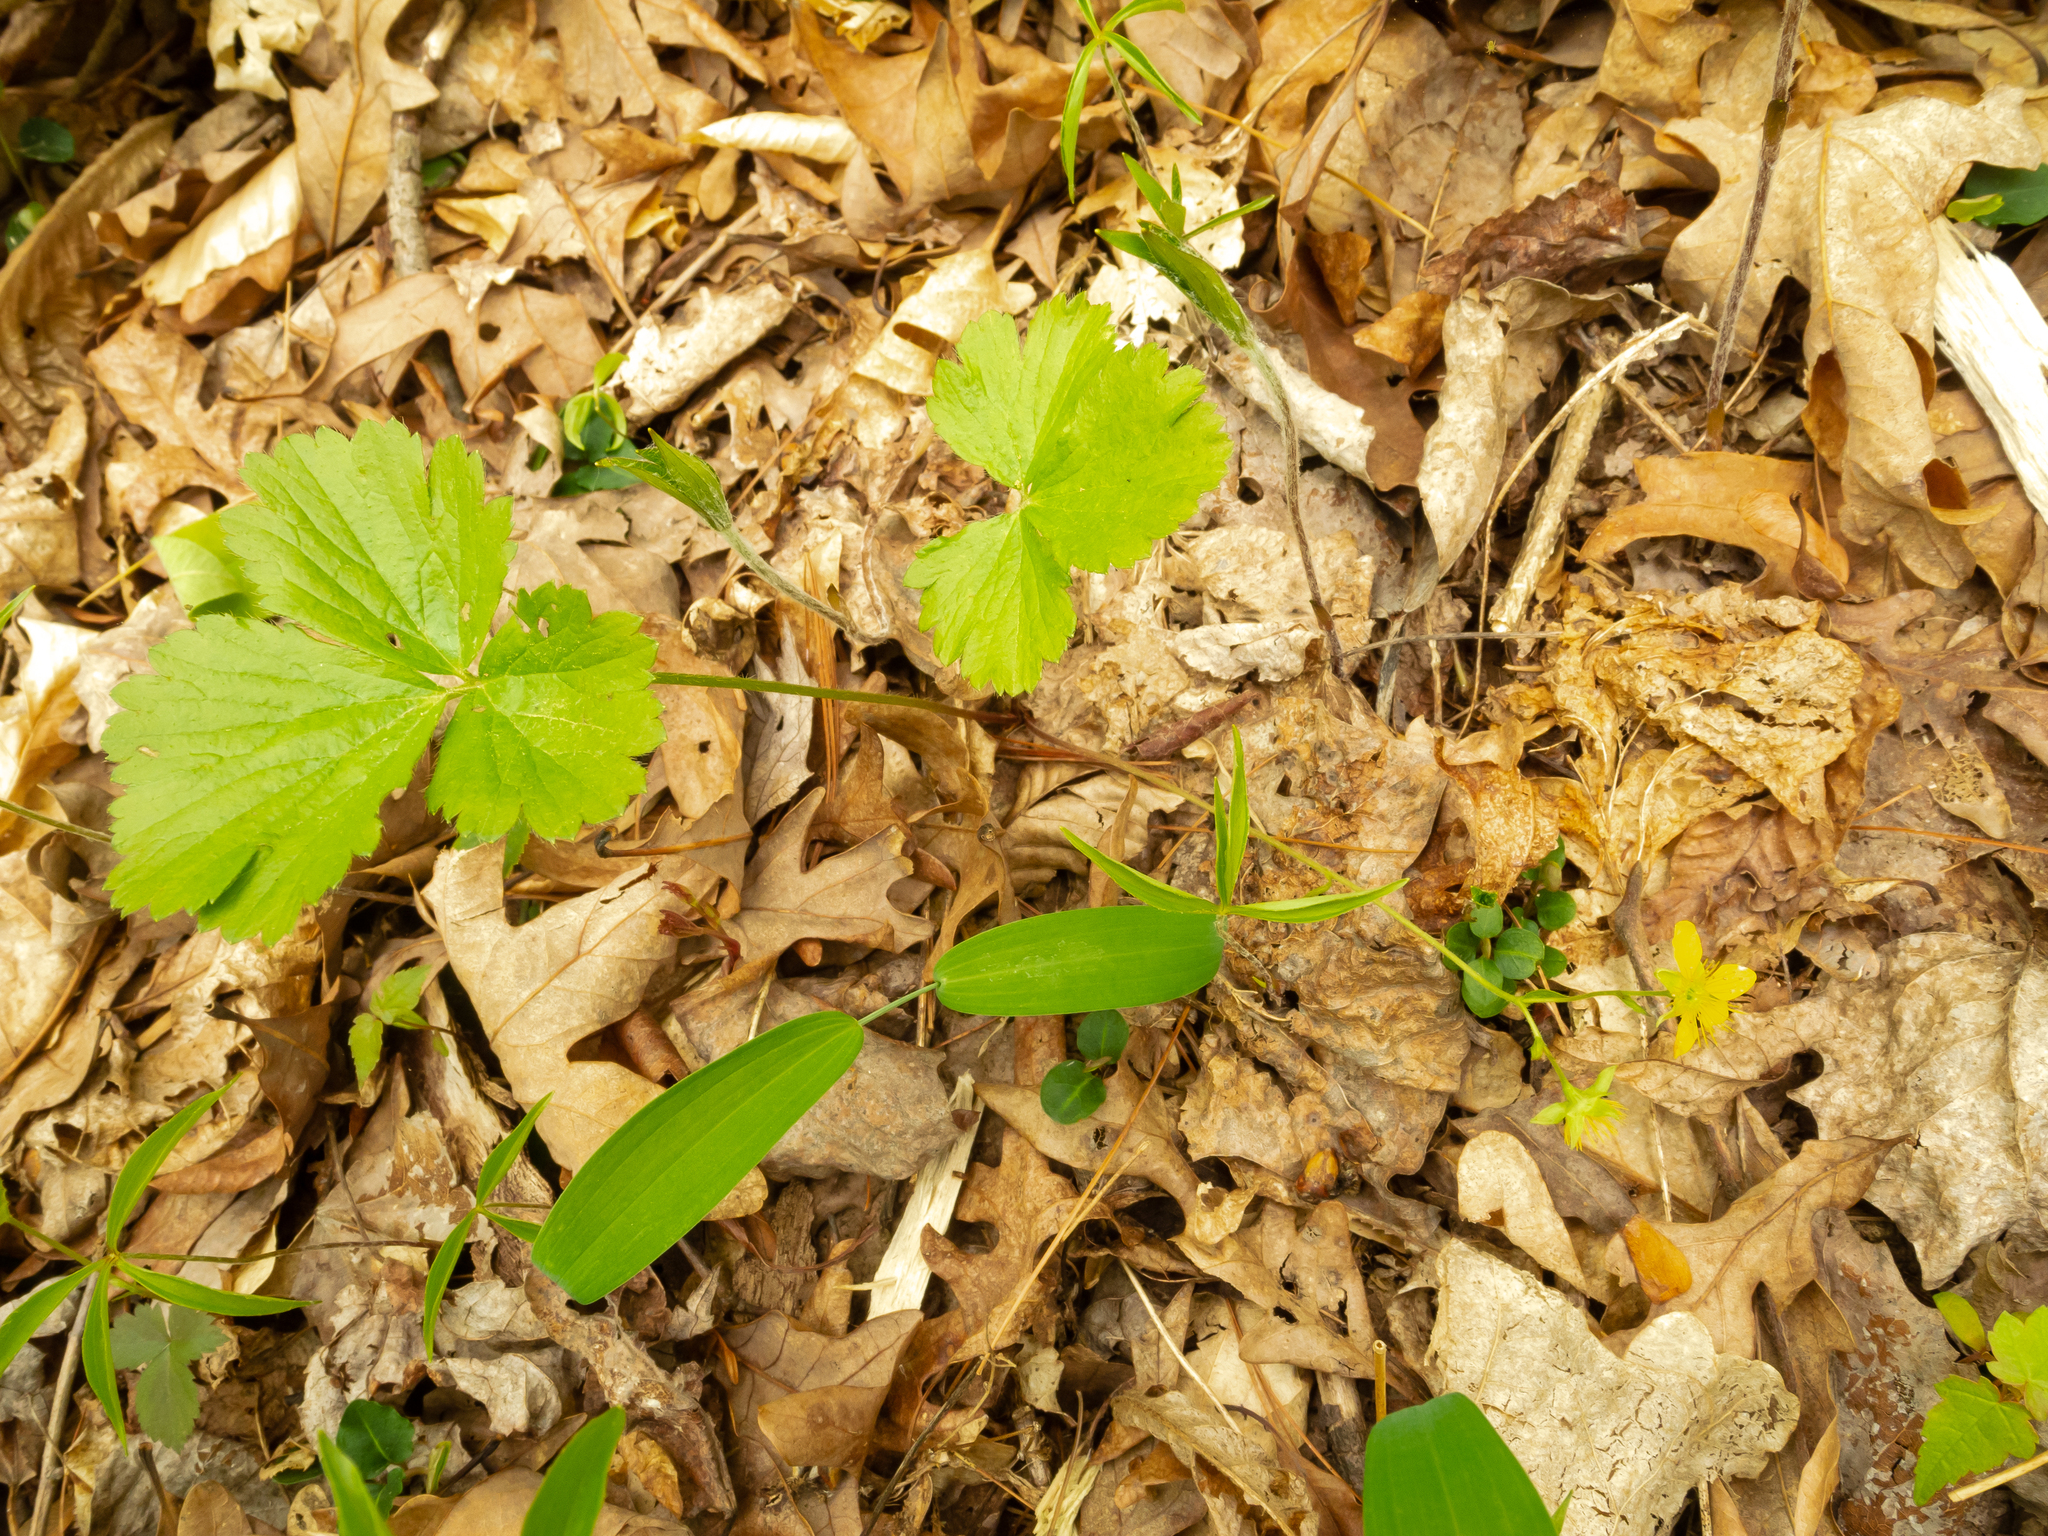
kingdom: Plantae
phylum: Tracheophyta
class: Magnoliopsida
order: Ranunculales
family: Ranunculaceae
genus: Ranunculus
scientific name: Ranunculus recurvatus
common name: Blisterwort
